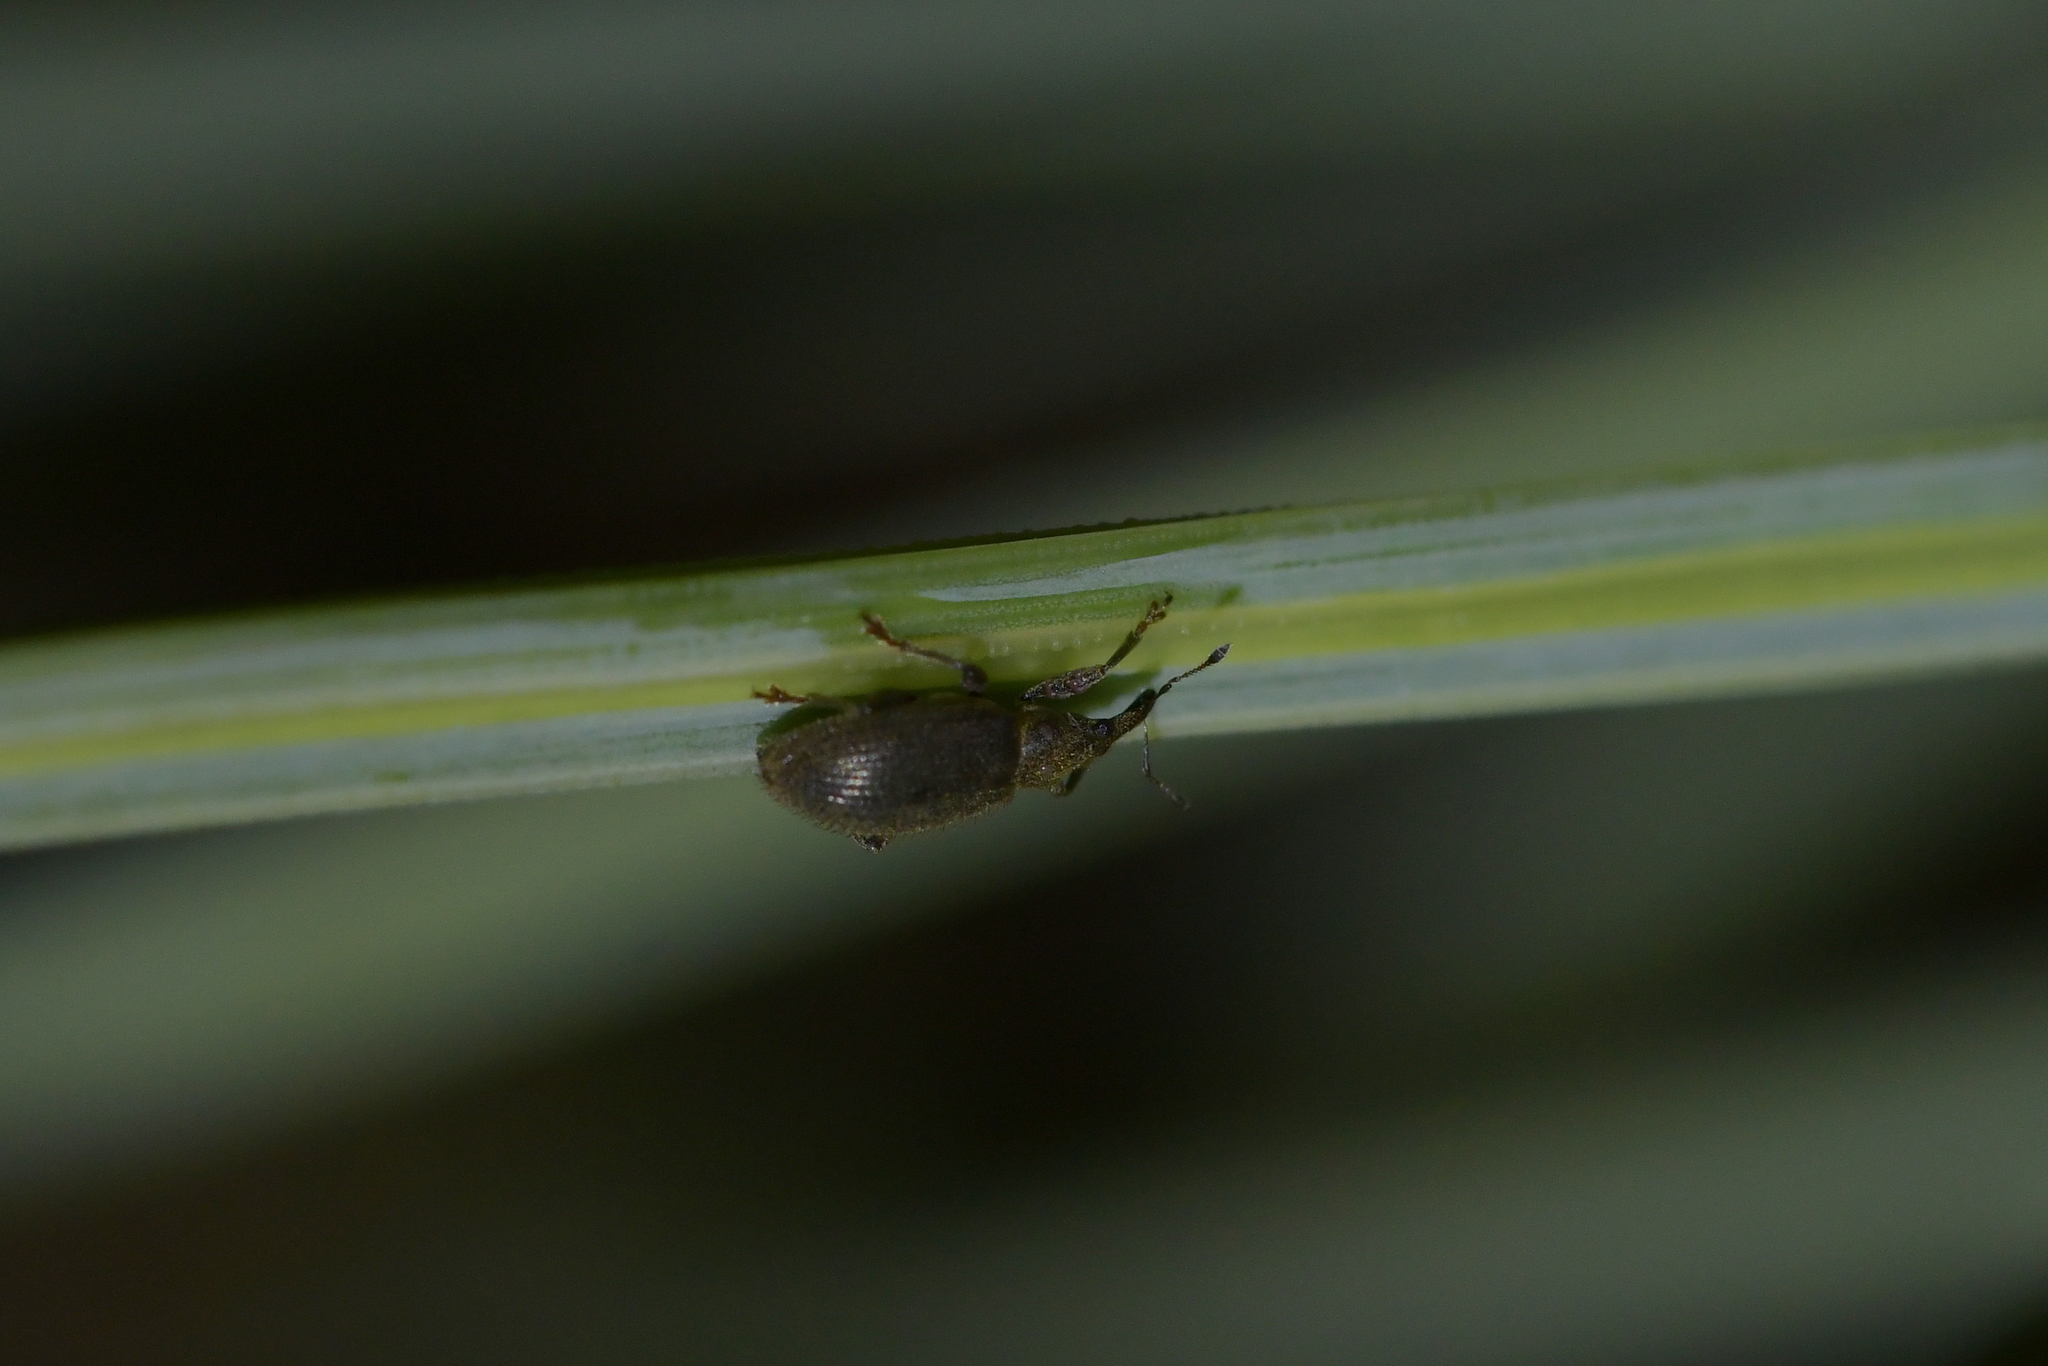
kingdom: Animalia
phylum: Arthropoda
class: Insecta
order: Coleoptera
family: Curculionidae
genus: Eugnomus
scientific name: Eugnomus durvillei
